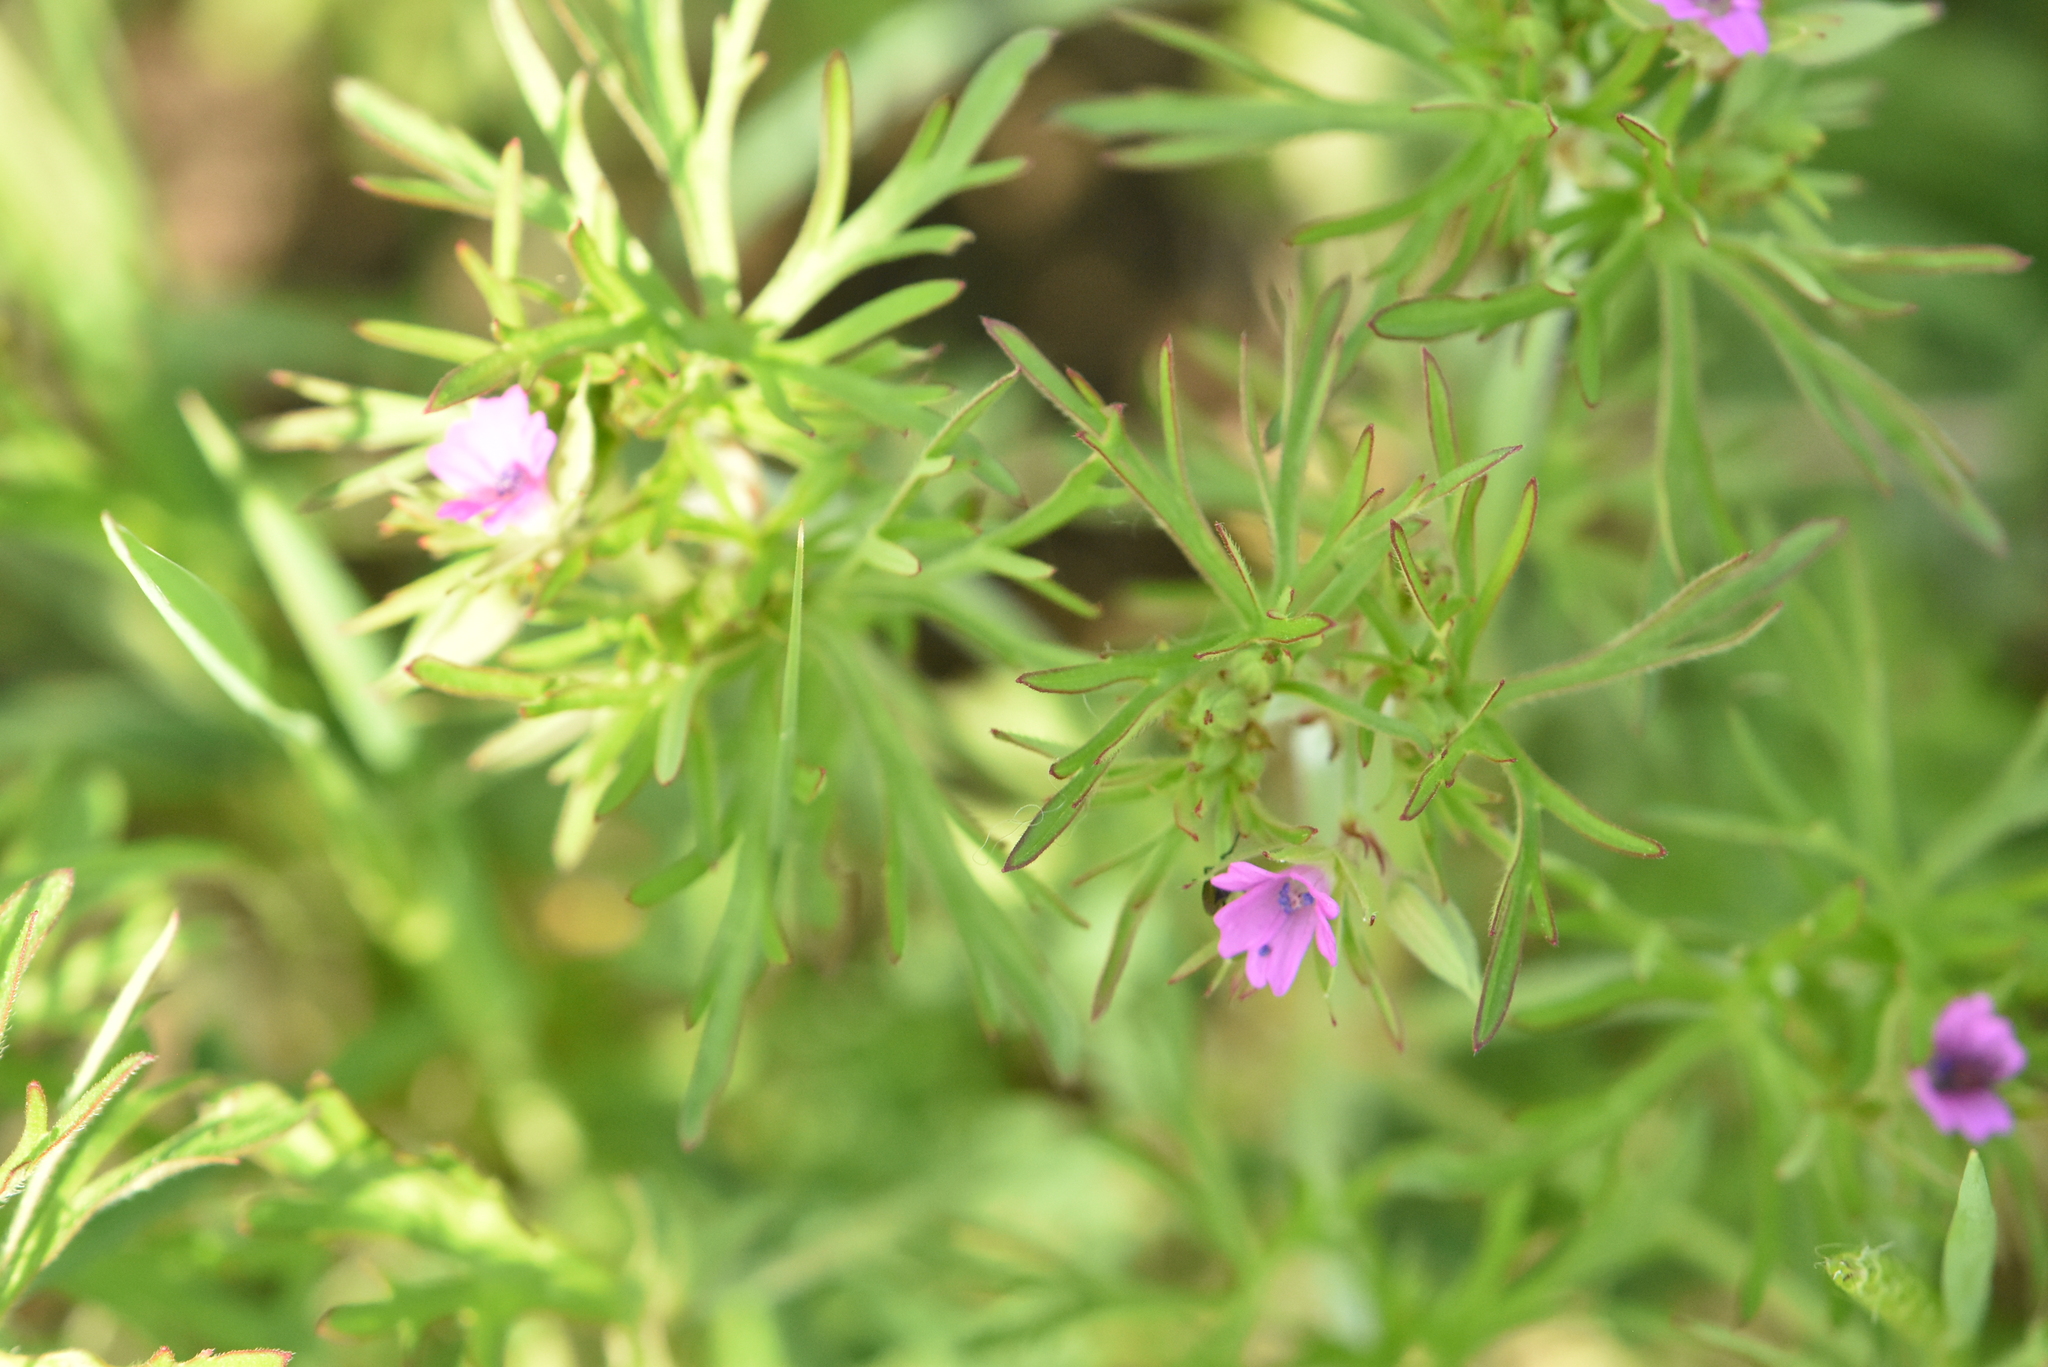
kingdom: Plantae
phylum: Tracheophyta
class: Magnoliopsida
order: Geraniales
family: Geraniaceae
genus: Geranium
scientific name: Geranium dissectum
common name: Cut-leaved crane's-bill
